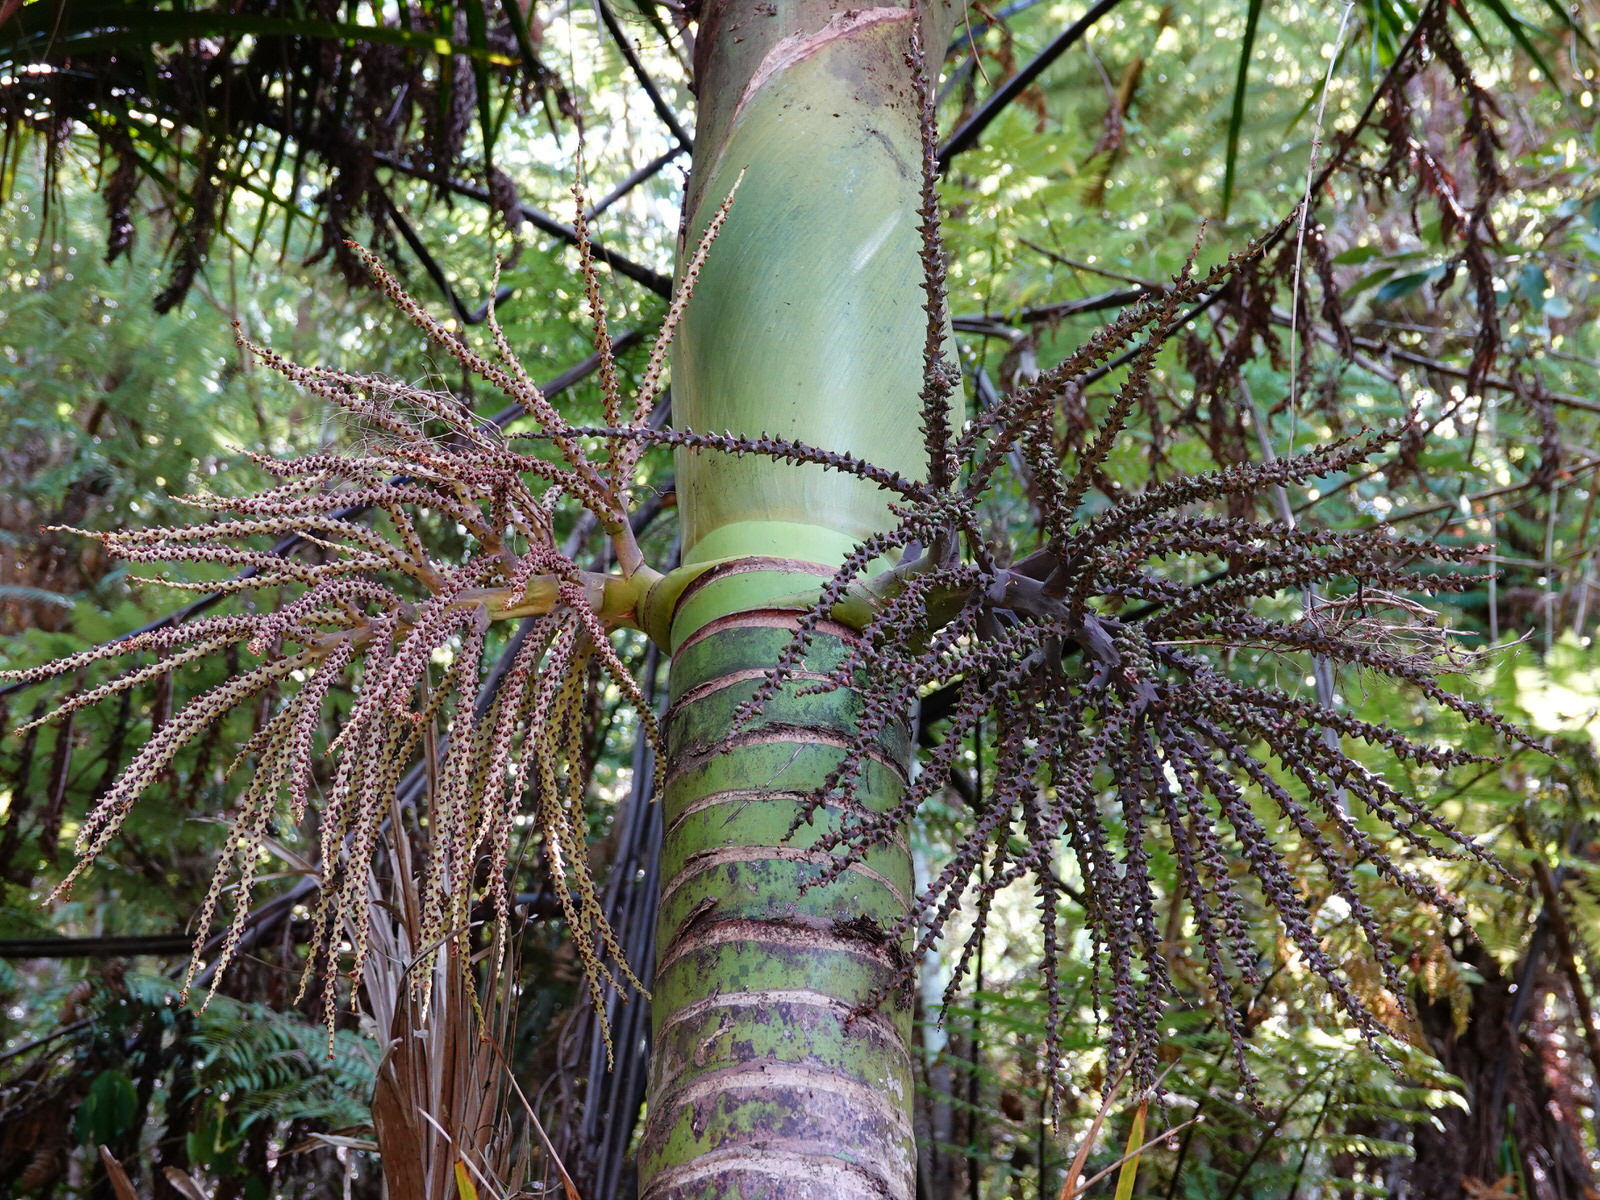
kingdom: Plantae
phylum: Tracheophyta
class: Liliopsida
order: Arecales
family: Arecaceae
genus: Rhopalostylis
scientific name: Rhopalostylis sapida
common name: Feather-duster palm
